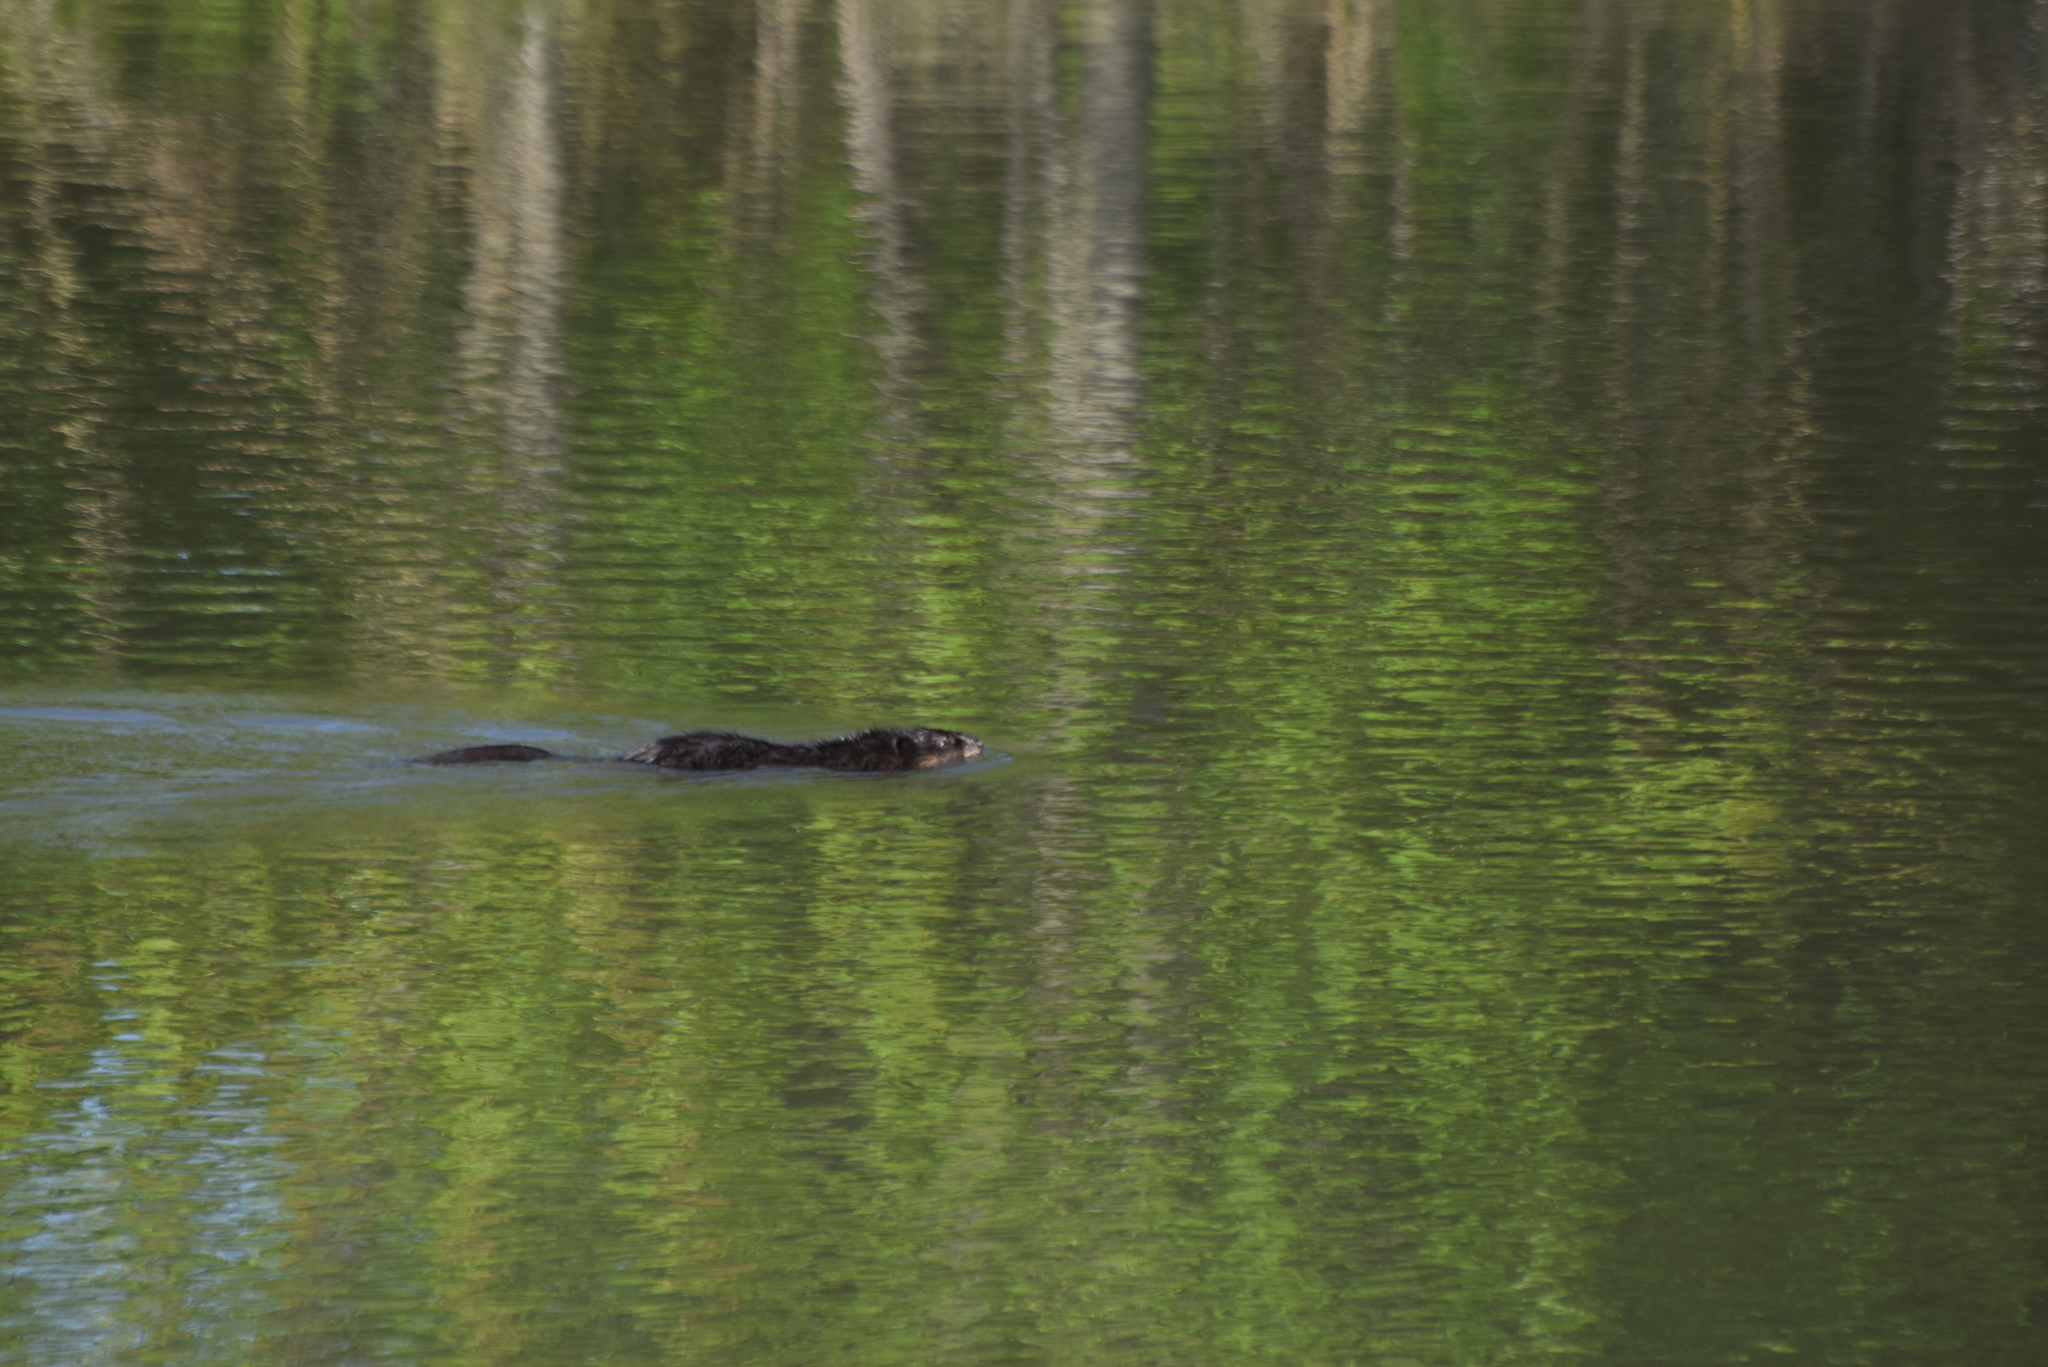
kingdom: Animalia
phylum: Chordata
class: Mammalia
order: Rodentia
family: Cricetidae
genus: Ondatra
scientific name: Ondatra zibethicus
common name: Muskrat
